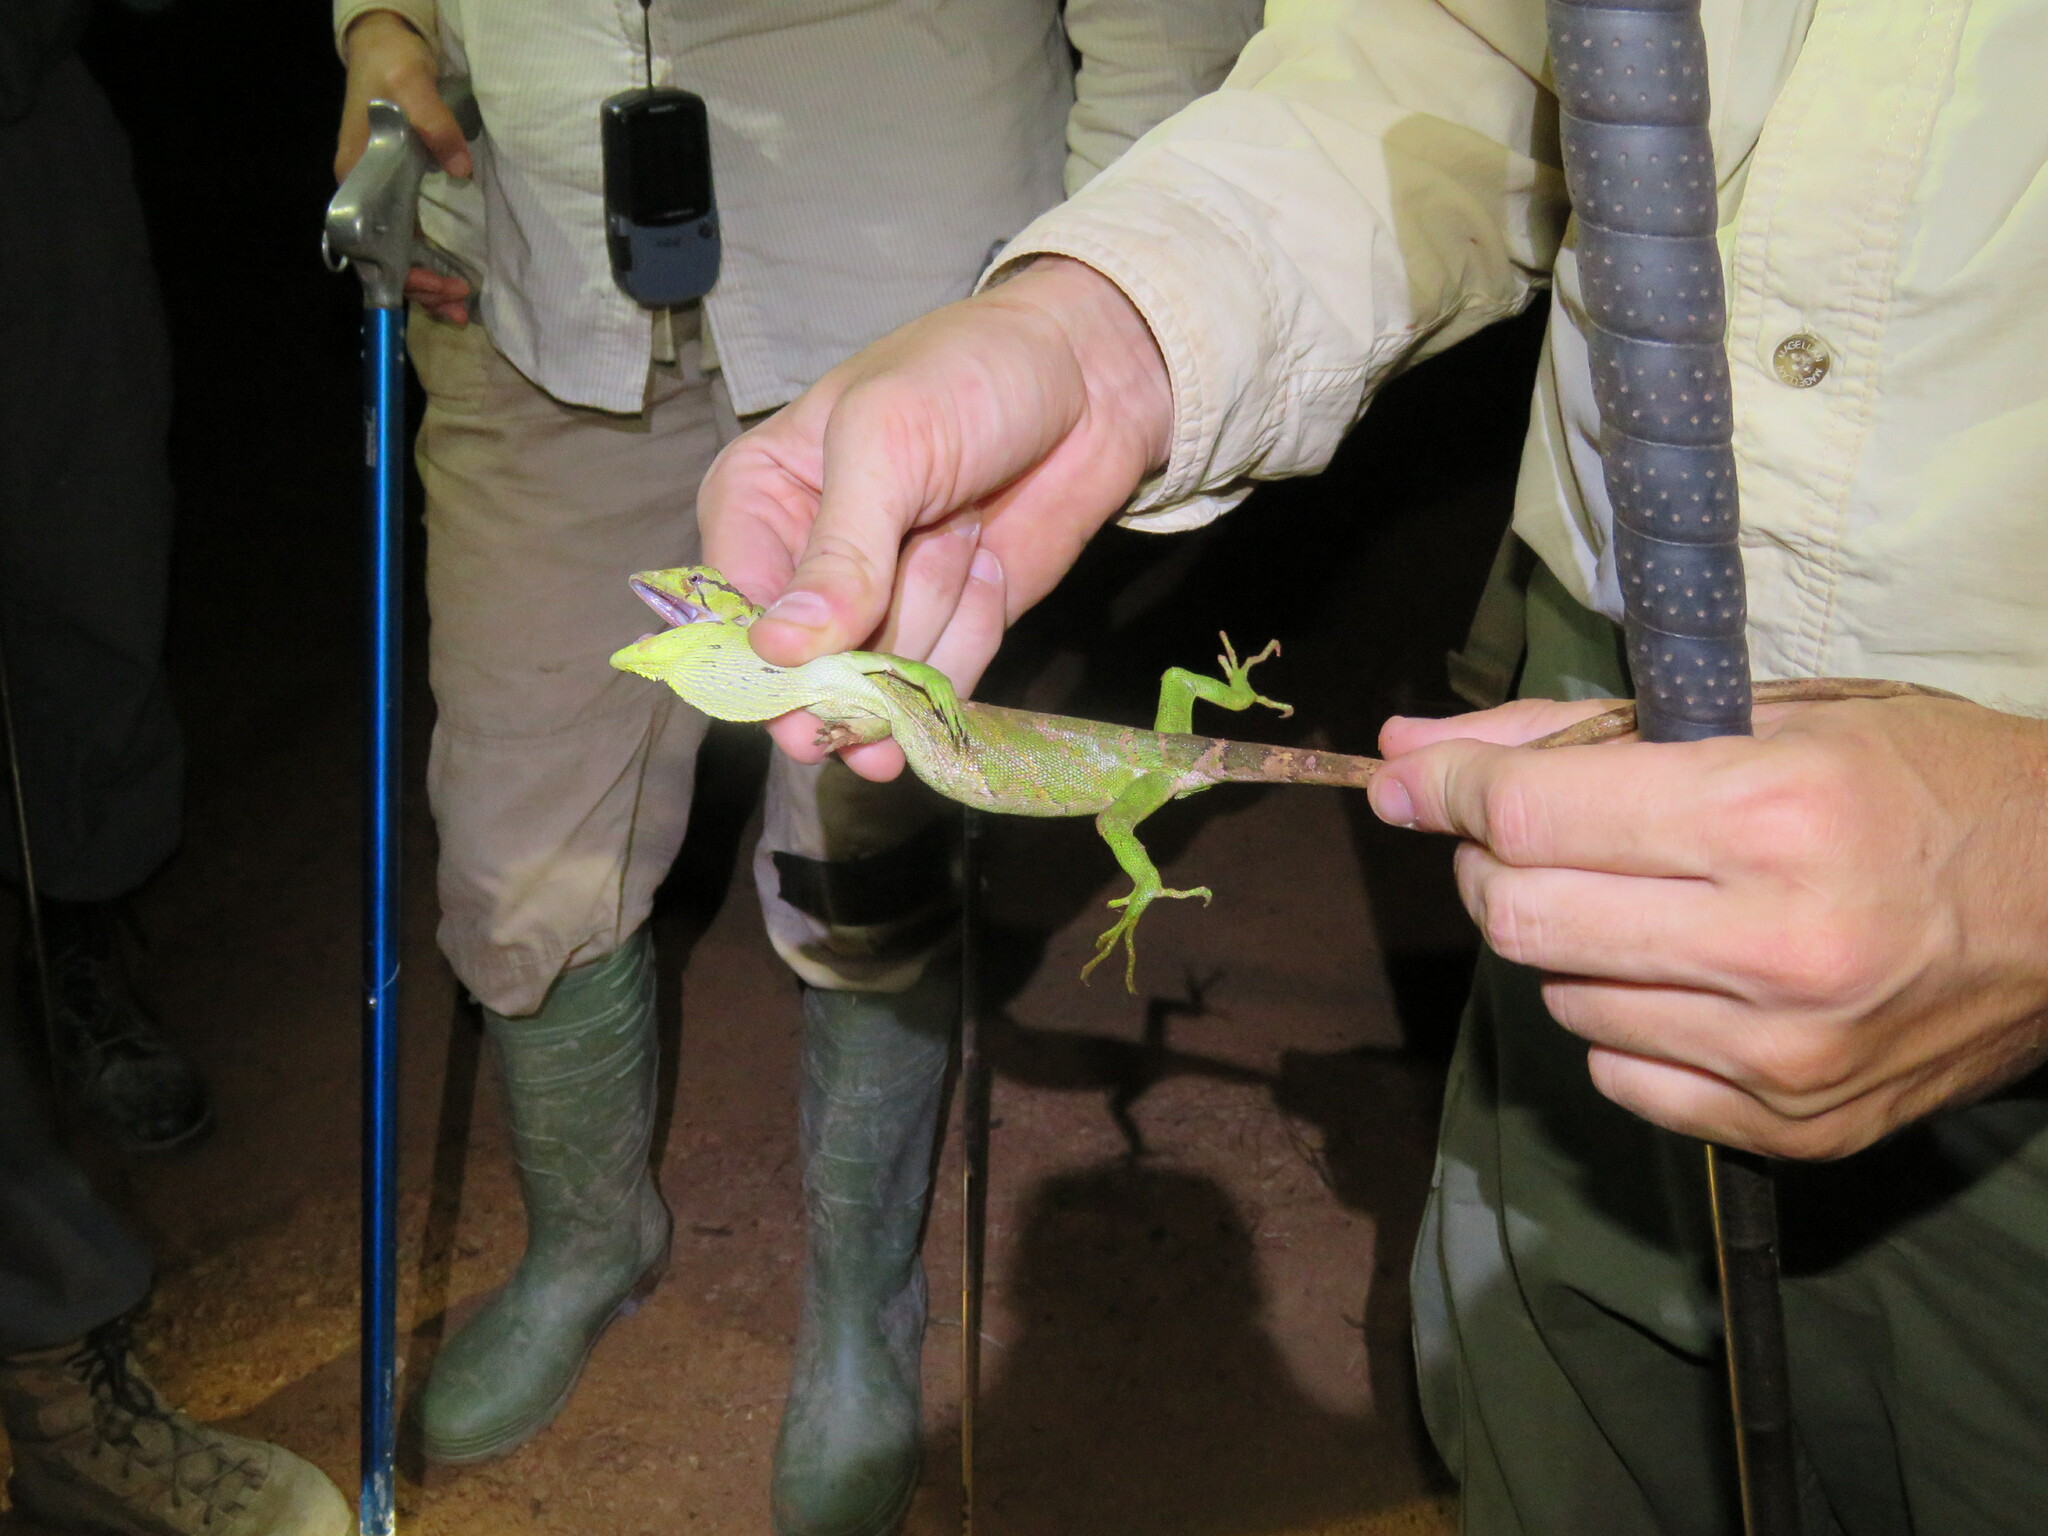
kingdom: Animalia
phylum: Chordata
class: Squamata
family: Polychrotidae
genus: Polychrus
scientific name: Polychrus liogaster
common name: Boulenger's bush anole
